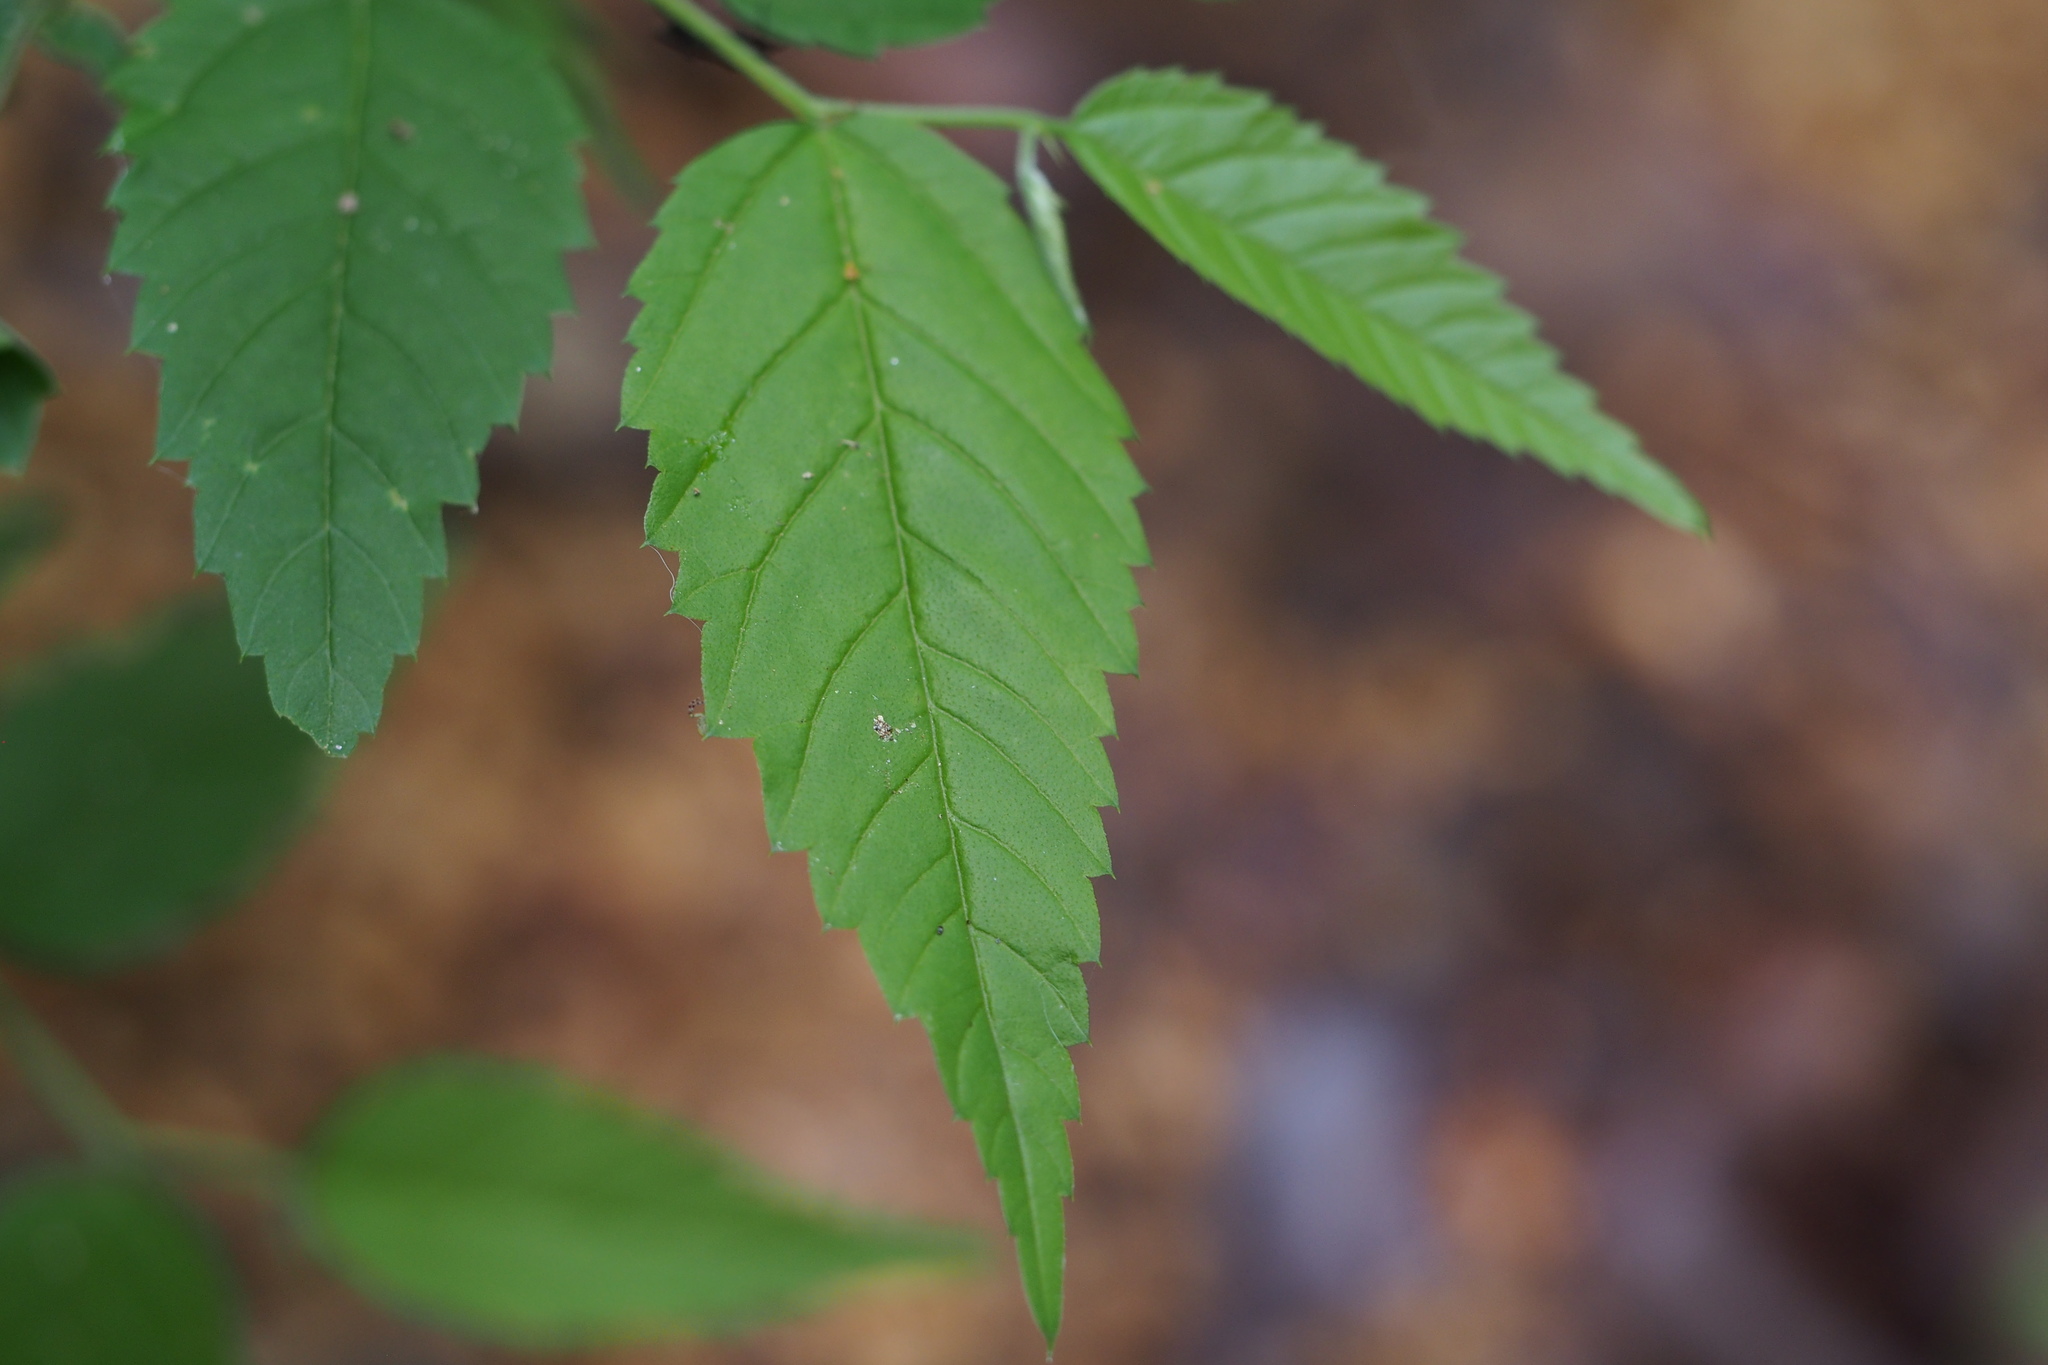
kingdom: Plantae
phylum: Tracheophyta
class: Magnoliopsida
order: Rosales
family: Cannabaceae
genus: Aphananthe
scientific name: Aphananthe aspera
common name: Mukutree
